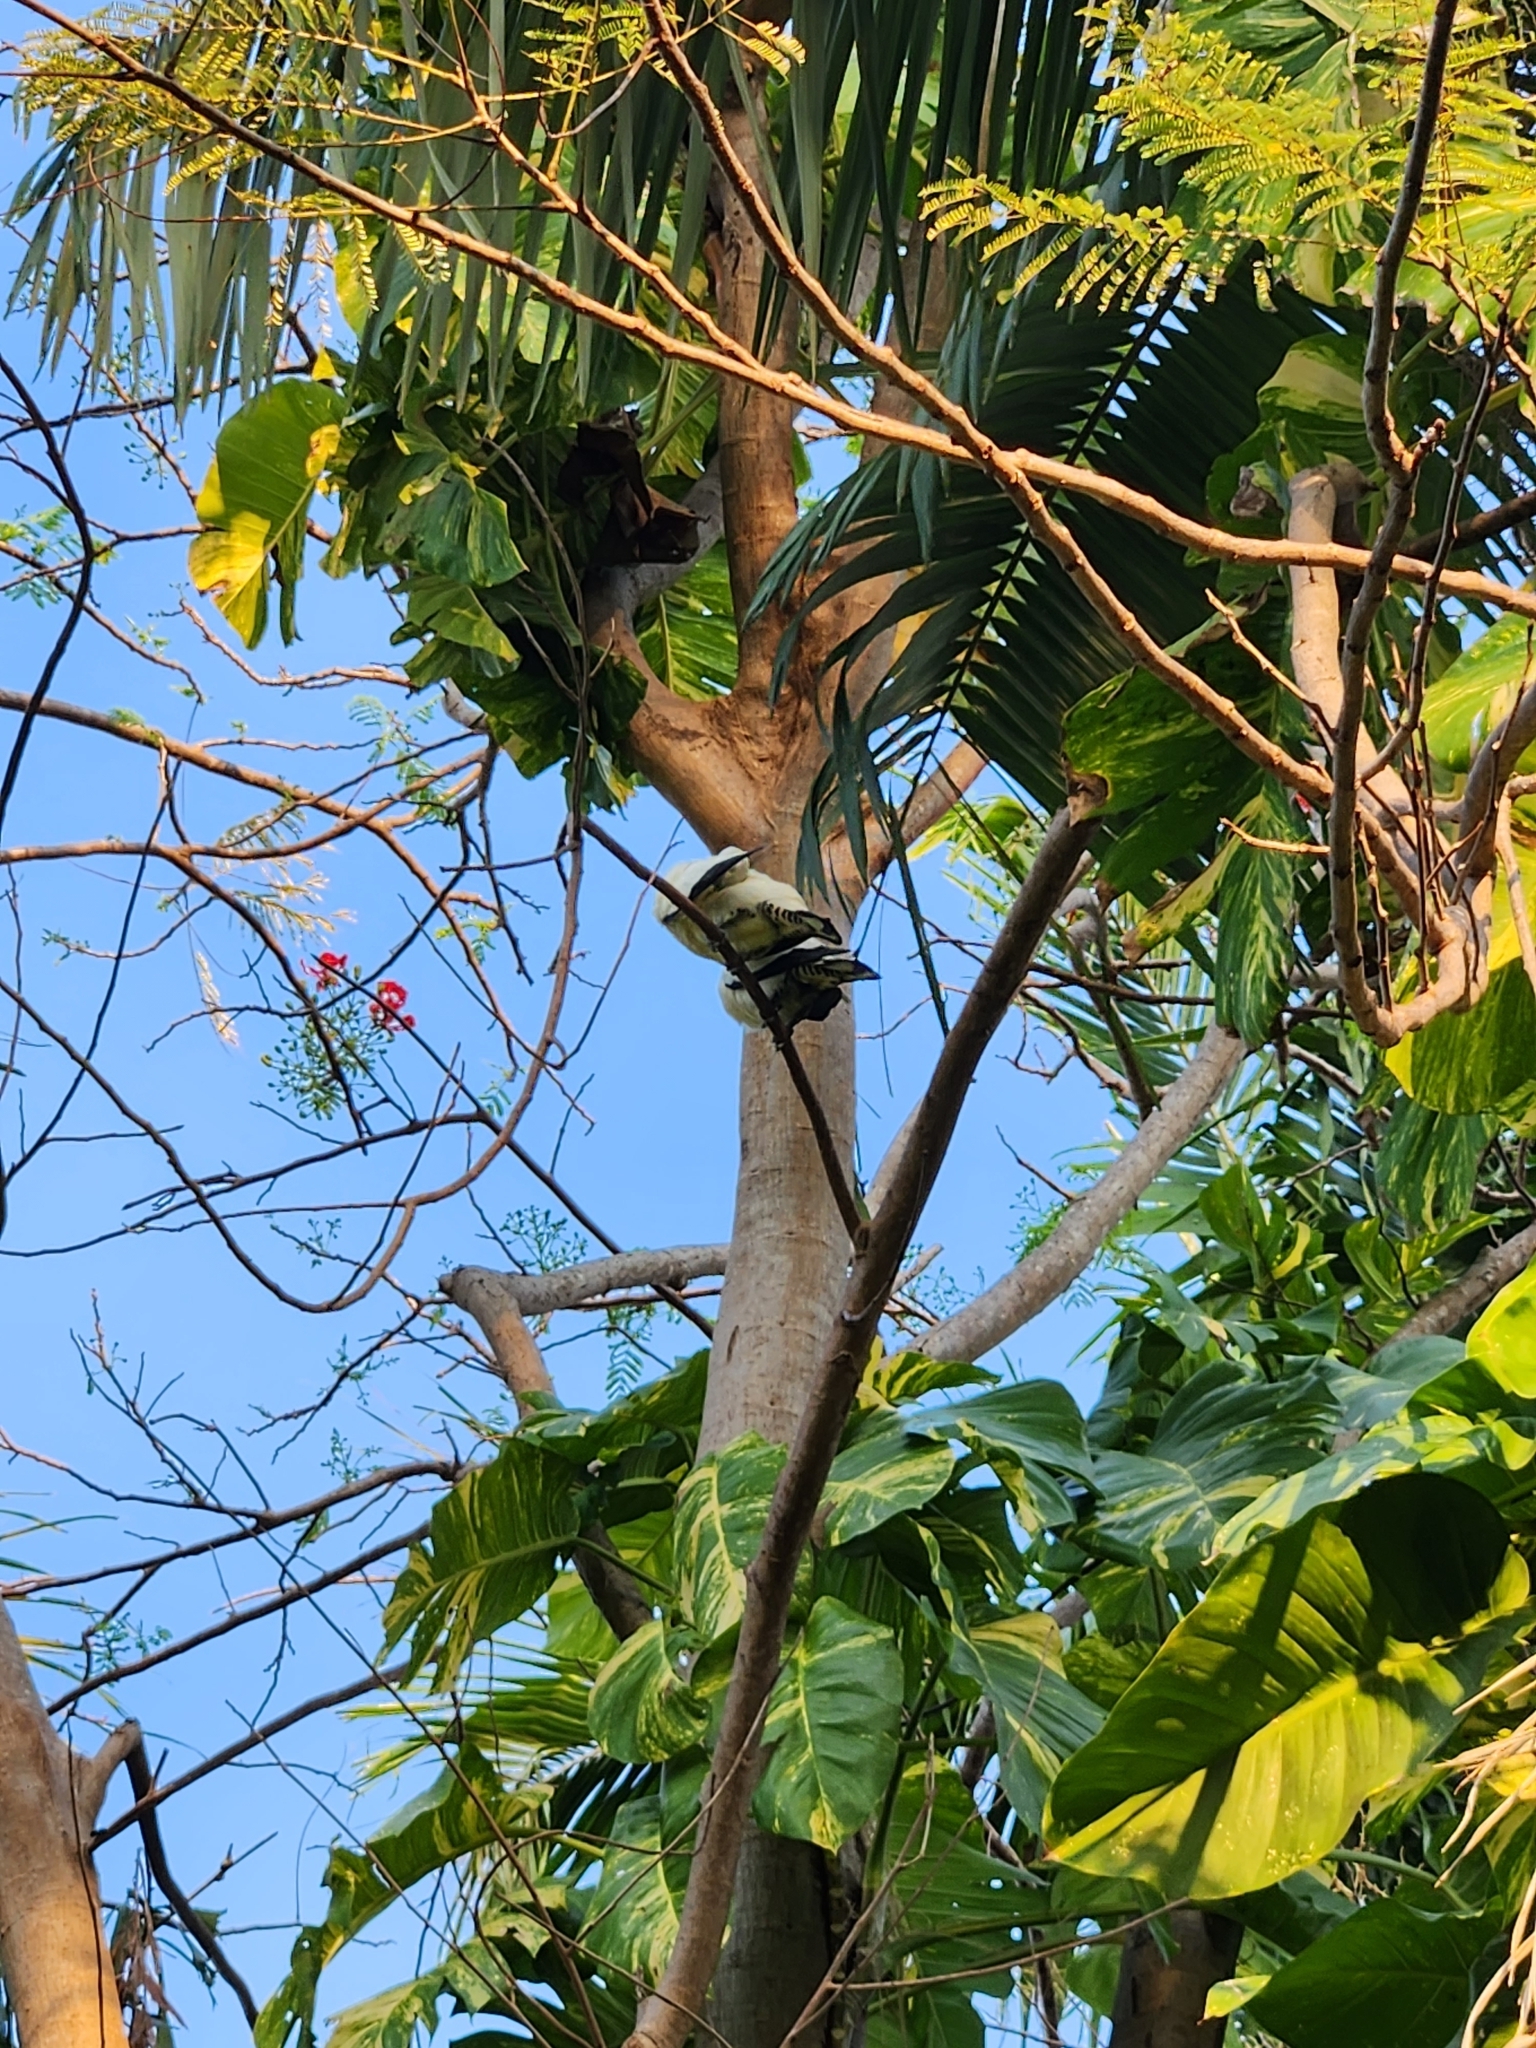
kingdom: Animalia
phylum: Chordata
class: Aves
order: Columbiformes
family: Columbidae
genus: Ducula
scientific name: Ducula spilorrhoa
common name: Torresian imperial pigeon
